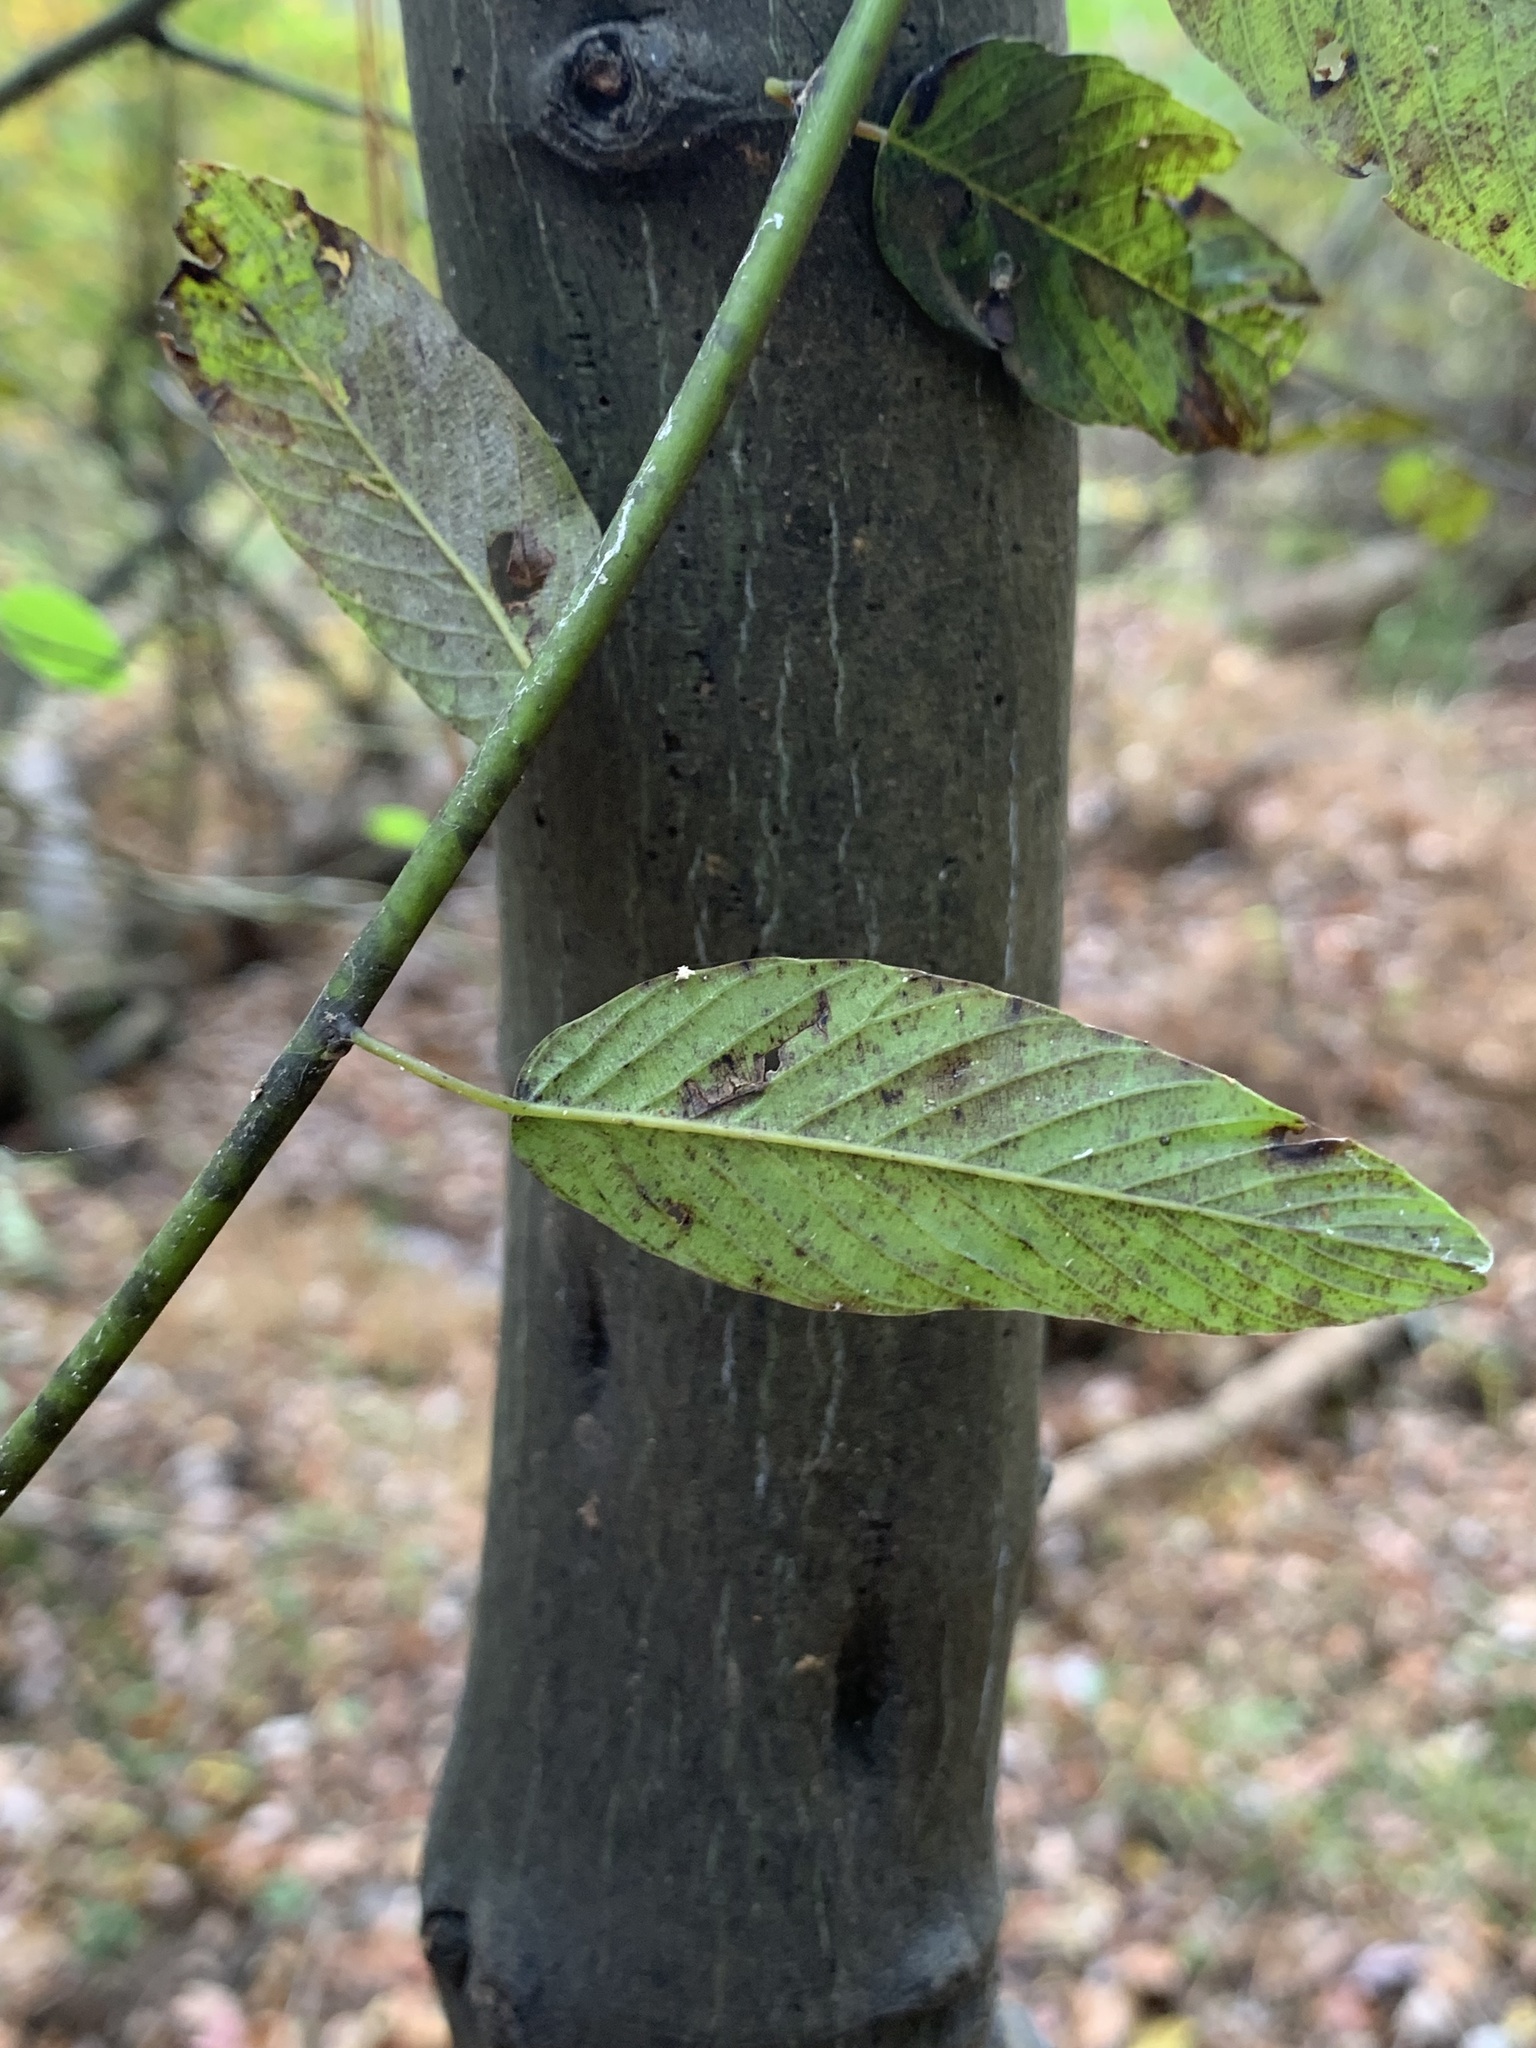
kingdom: Plantae
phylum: Tracheophyta
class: Magnoliopsida
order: Rosales
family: Rhamnaceae
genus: Berchemia
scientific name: Berchemia scandens
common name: Supplejack
